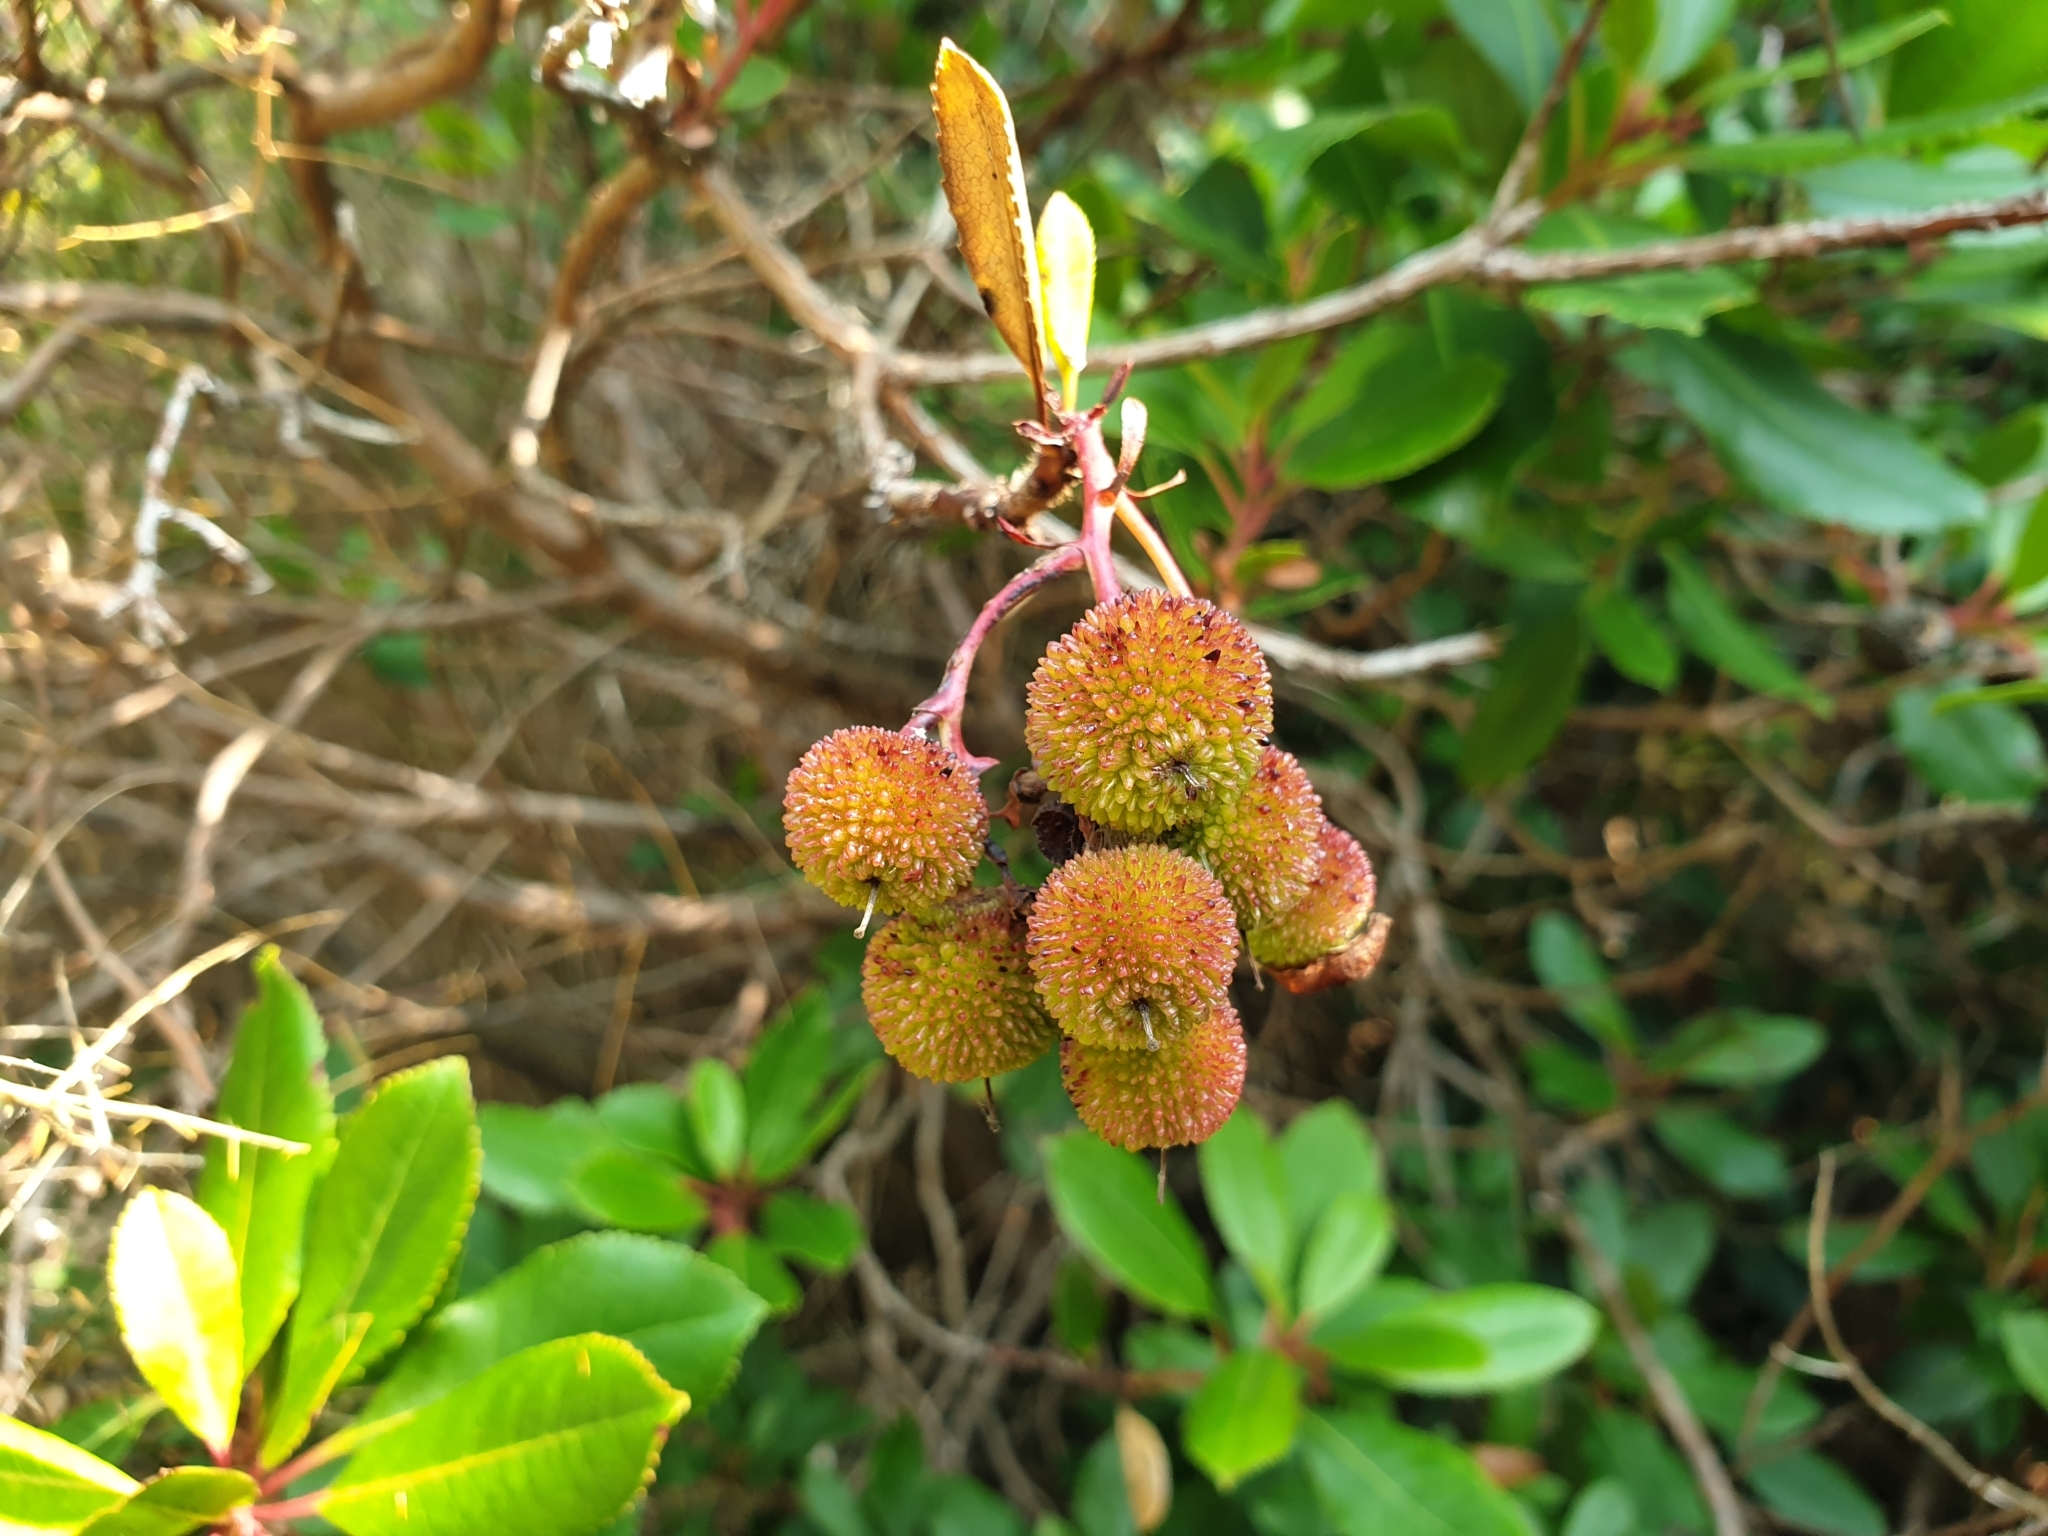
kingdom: Plantae
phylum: Tracheophyta
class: Magnoliopsida
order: Ericales
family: Ericaceae
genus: Arbutus
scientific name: Arbutus unedo
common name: Strawberry-tree
